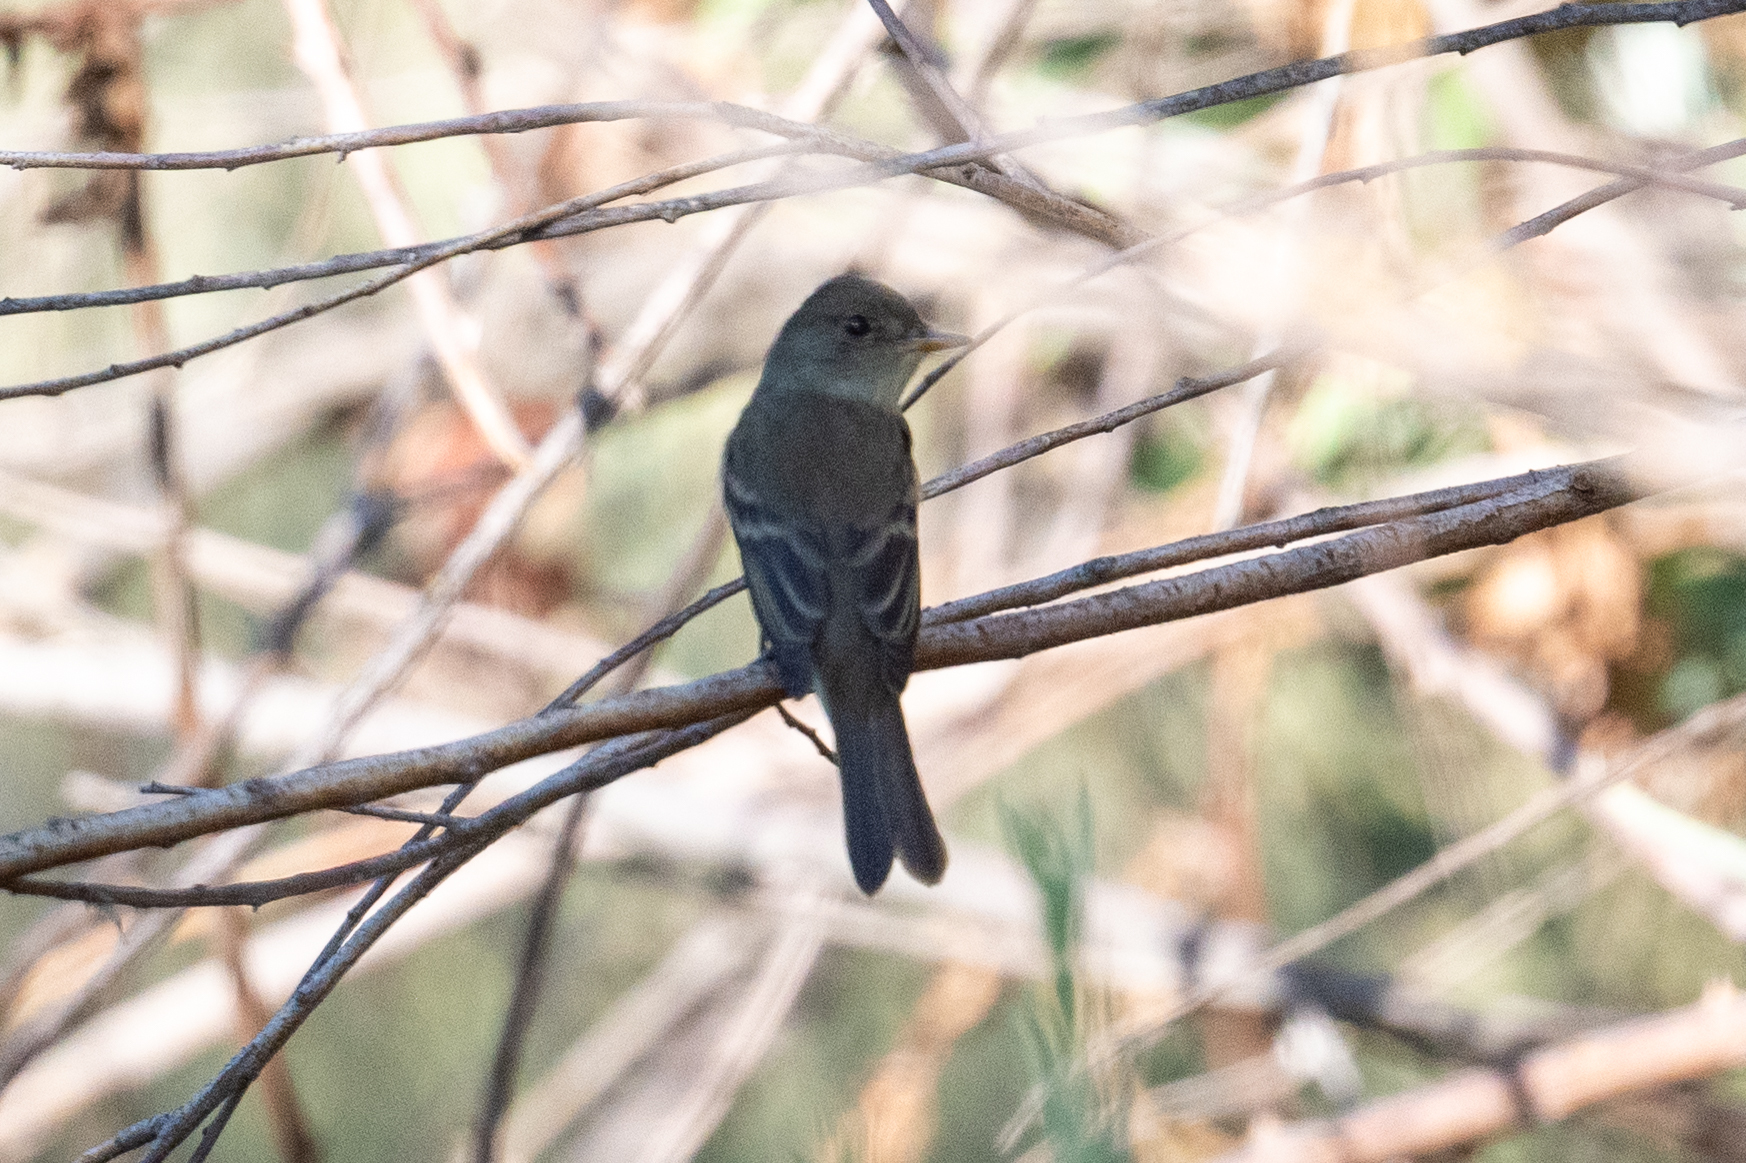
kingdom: Animalia
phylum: Chordata
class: Aves
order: Passeriformes
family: Tyrannidae
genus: Empidonax
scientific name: Empidonax traillii
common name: Willow flycatcher
